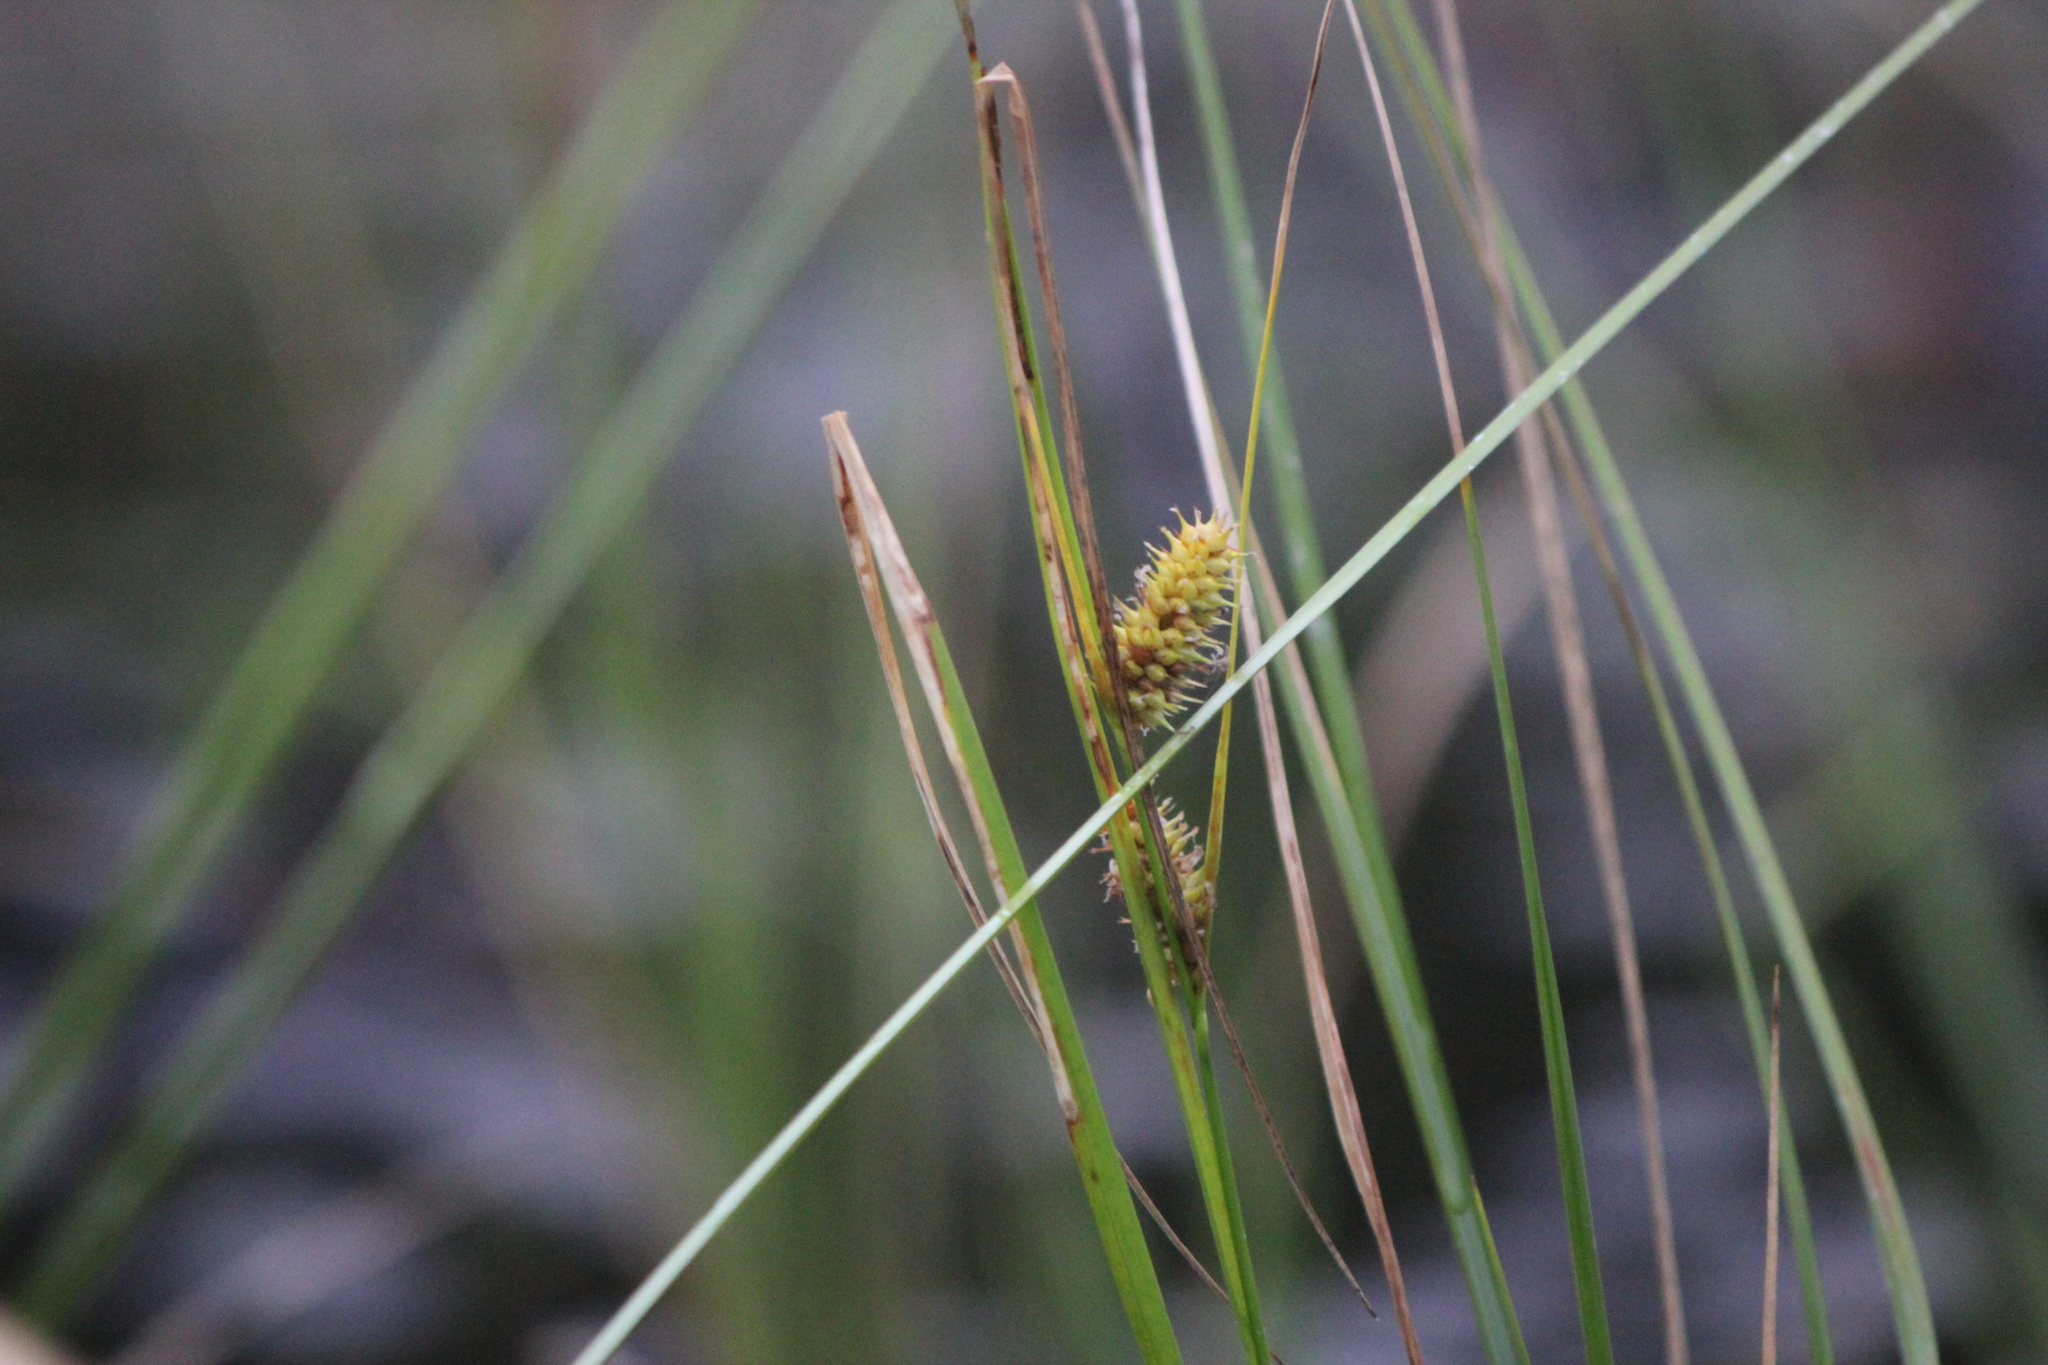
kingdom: Plantae
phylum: Tracheophyta
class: Liliopsida
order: Poales
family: Cyperaceae
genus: Carex
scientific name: Carex utriculata
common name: Beaked sedge
